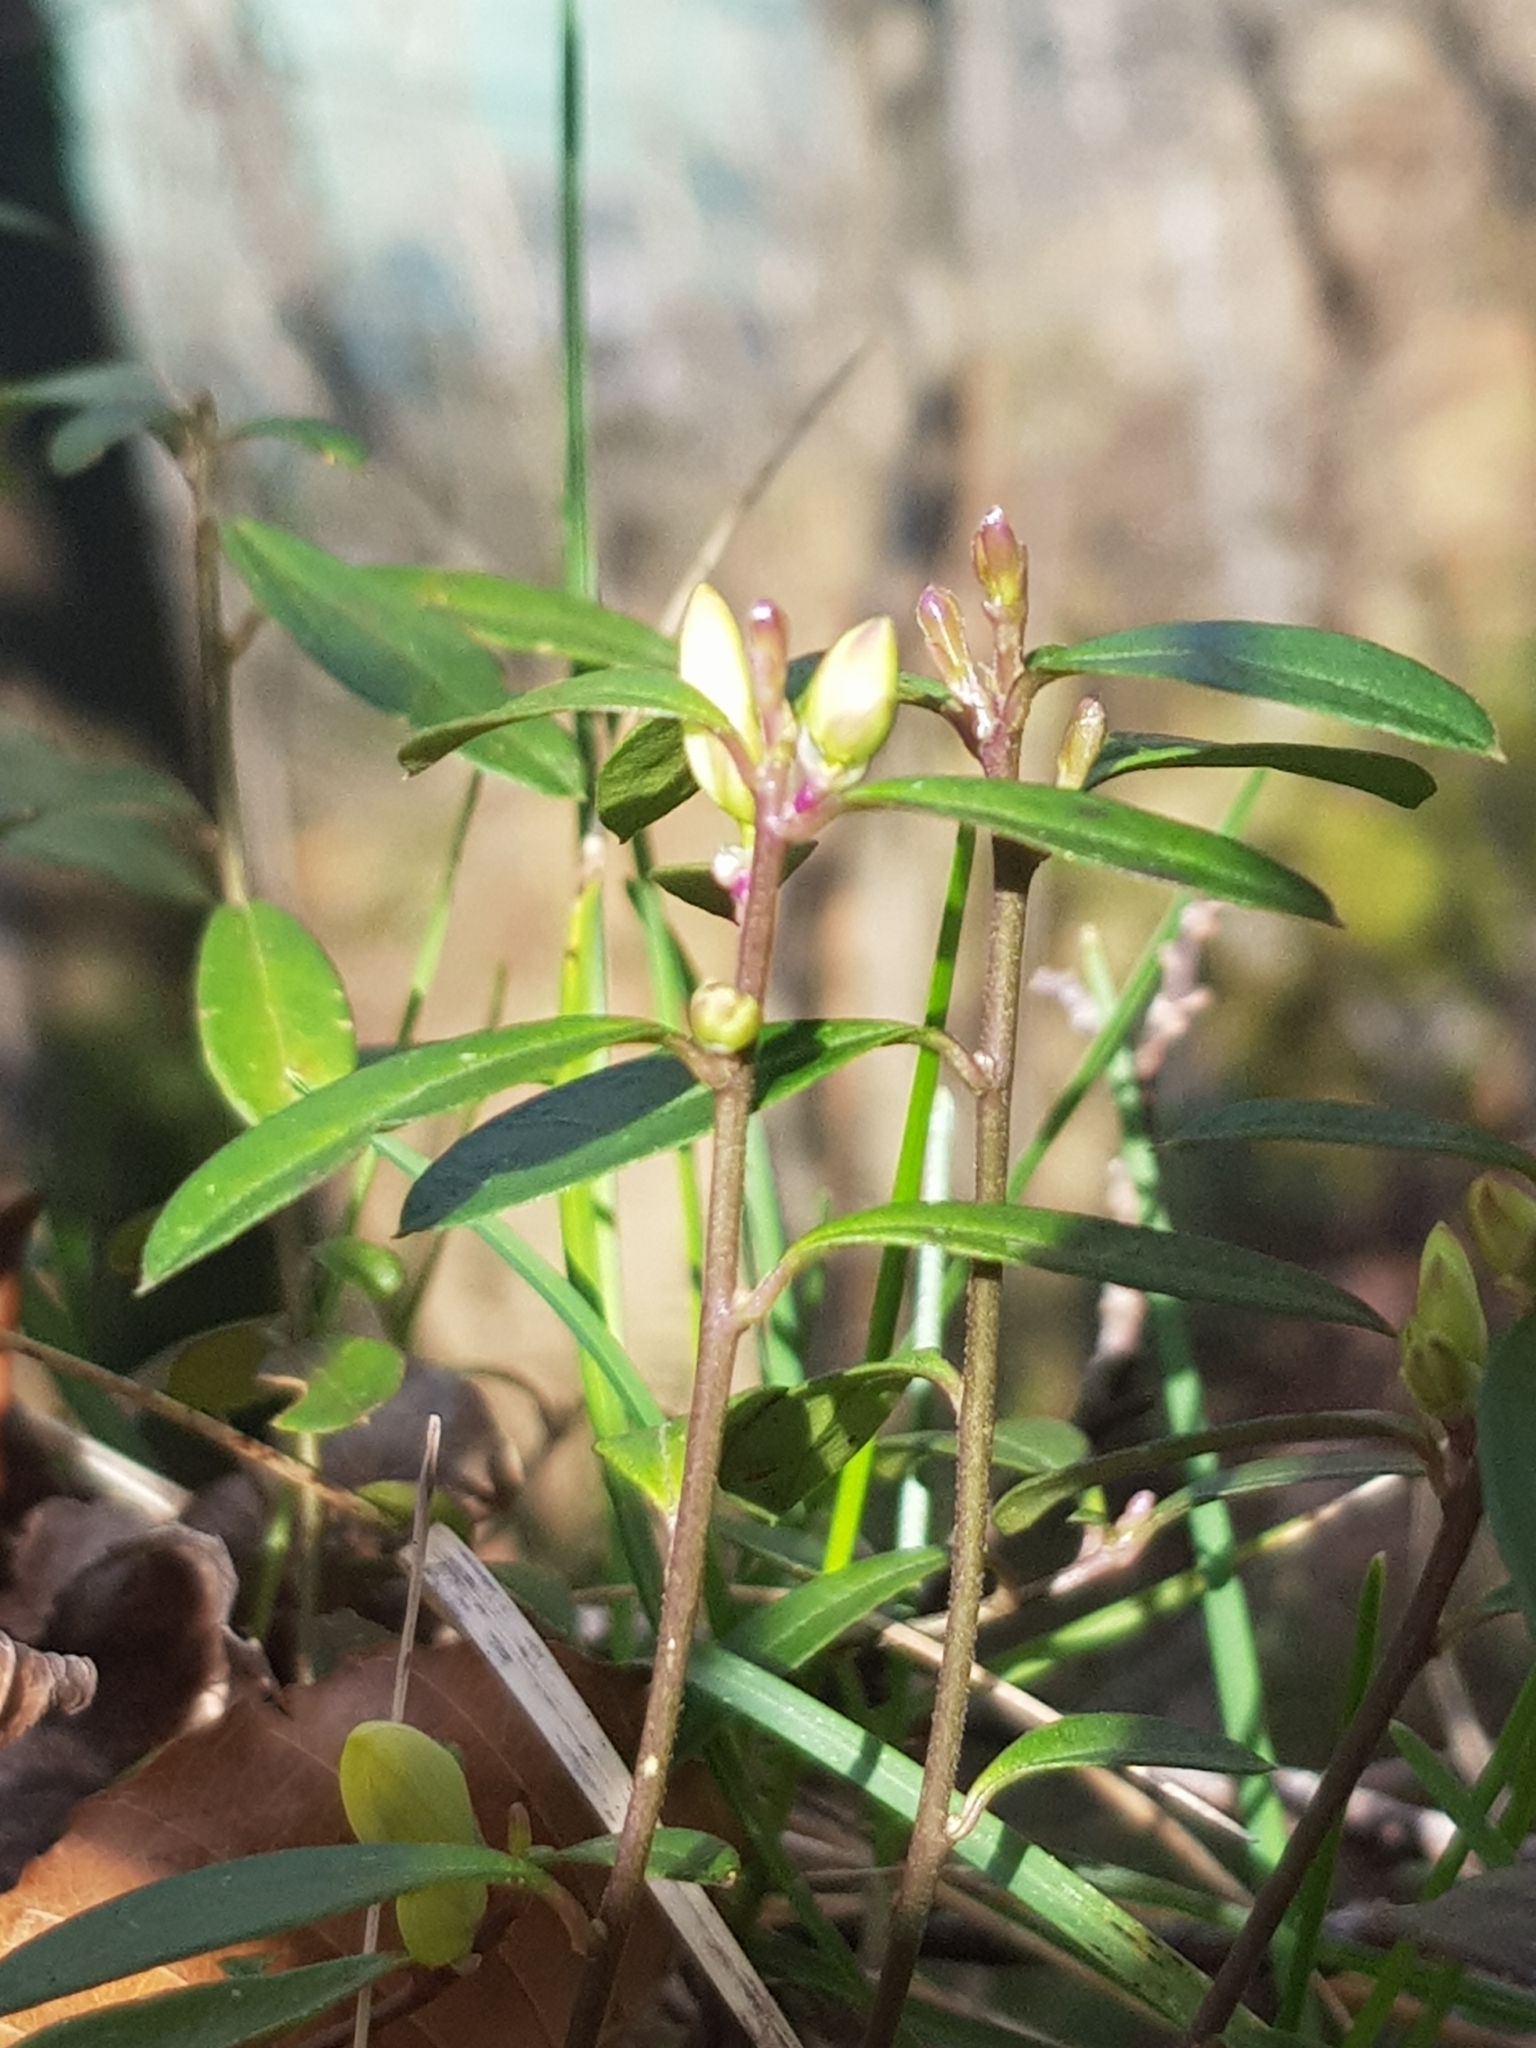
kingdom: Plantae
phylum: Tracheophyta
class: Magnoliopsida
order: Fabales
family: Polygalaceae
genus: Polygaloides
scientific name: Polygaloides chamaebuxus
